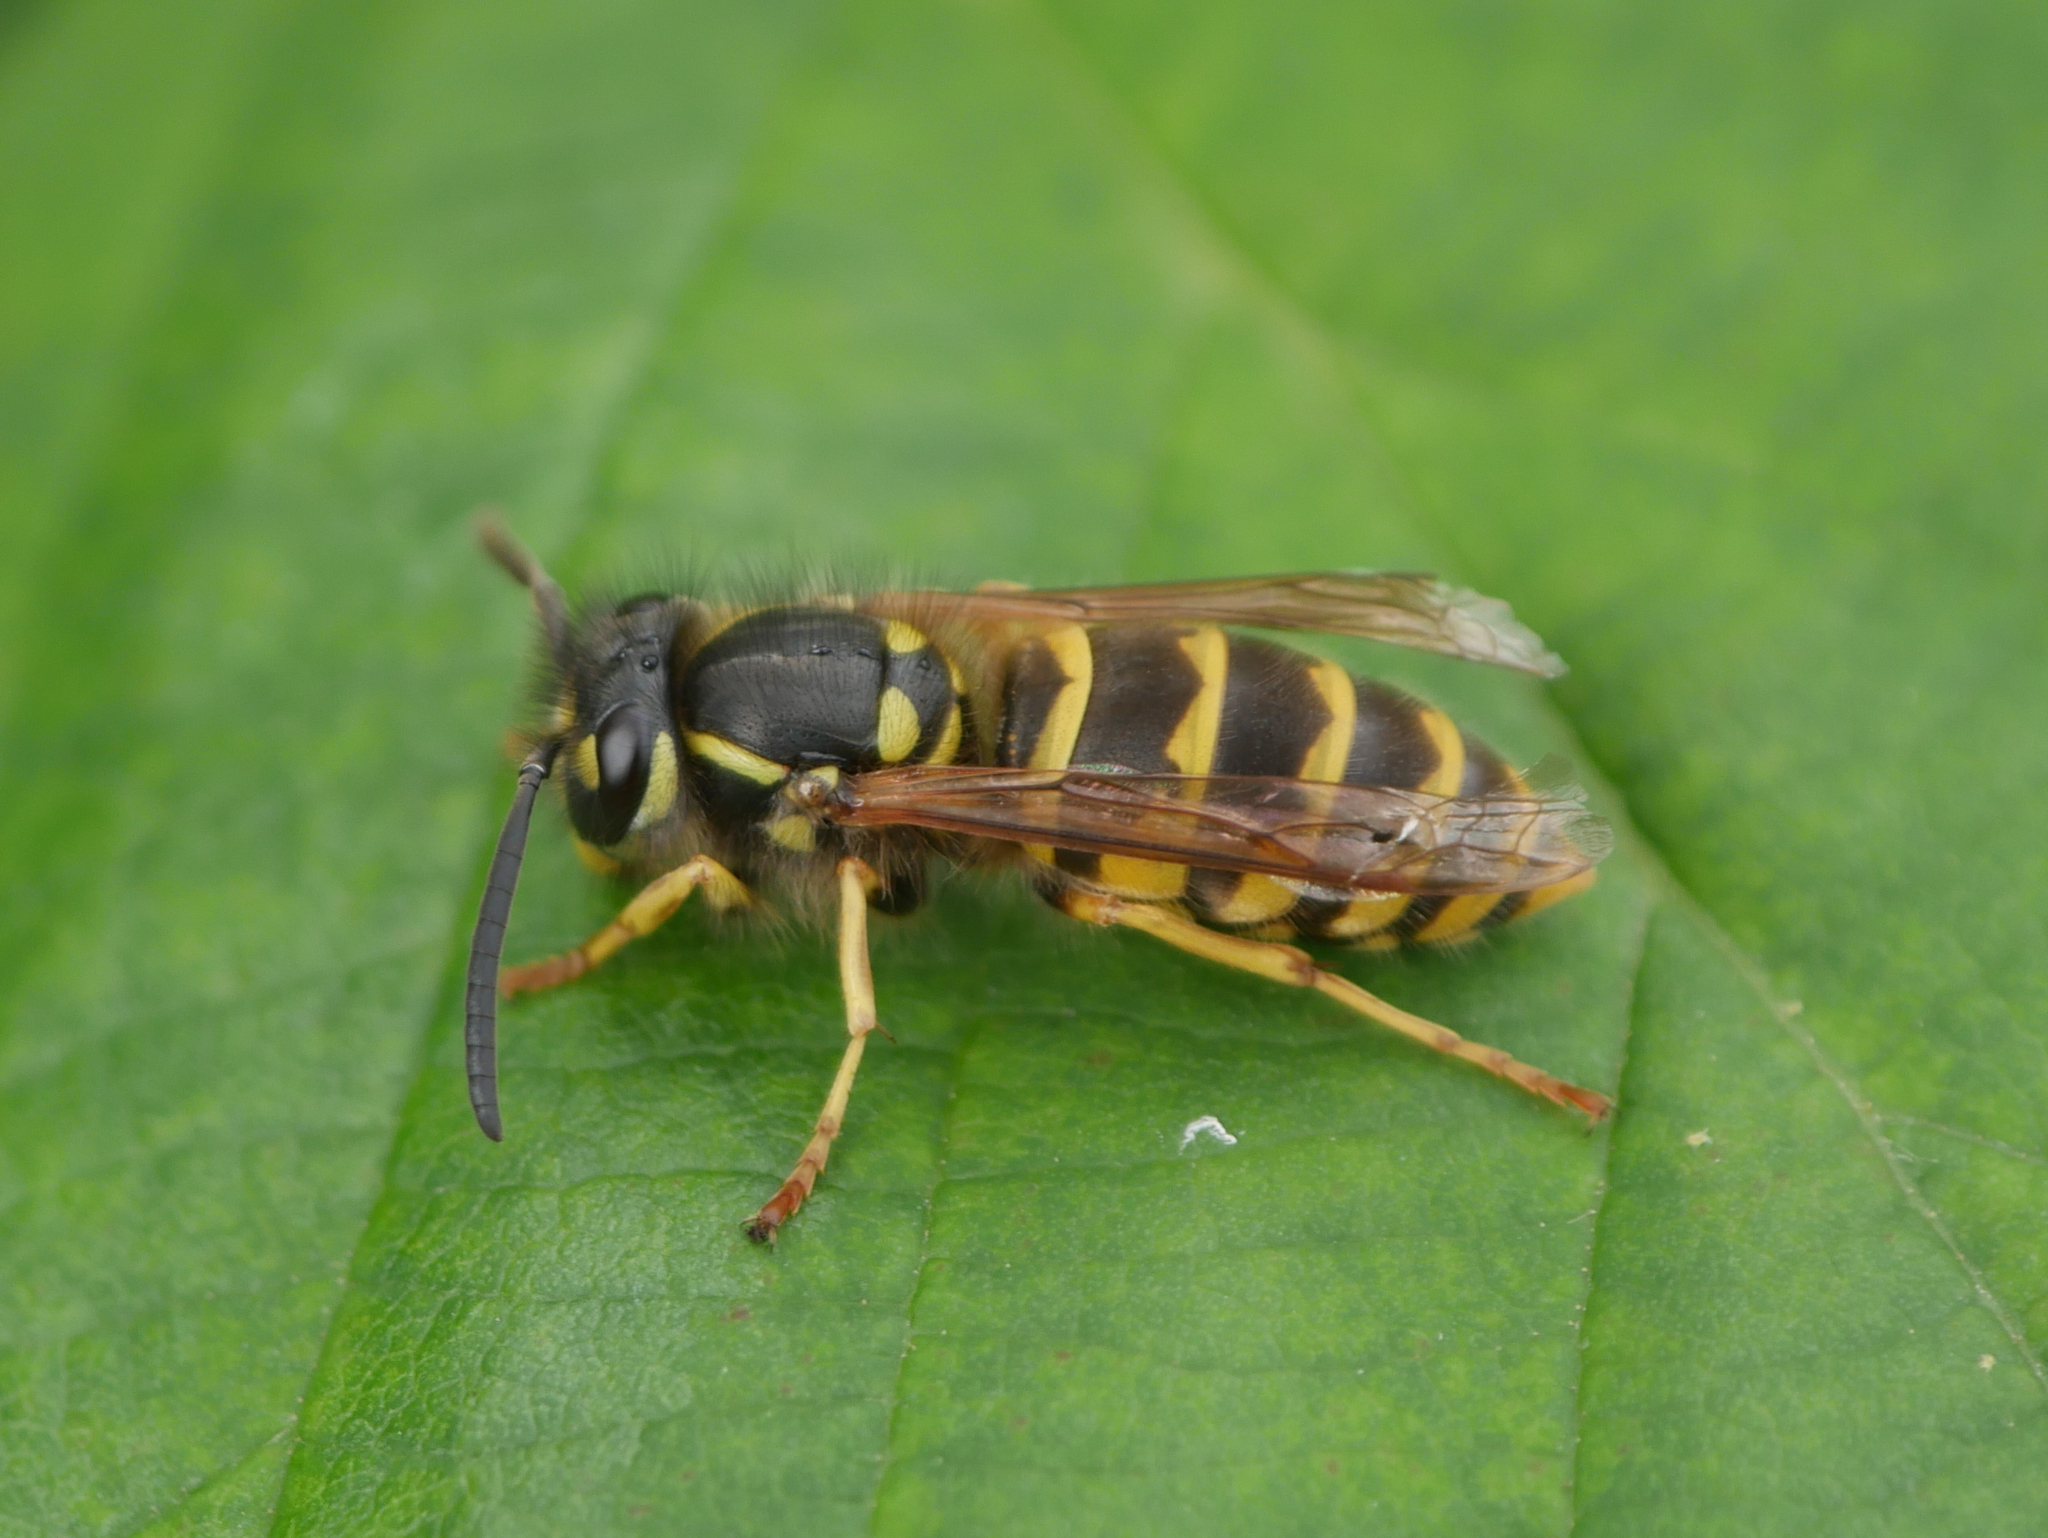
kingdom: Animalia
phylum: Arthropoda
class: Insecta
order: Hymenoptera
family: Vespidae
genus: Vespula
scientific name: Vespula vulgaris
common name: Common wasp
